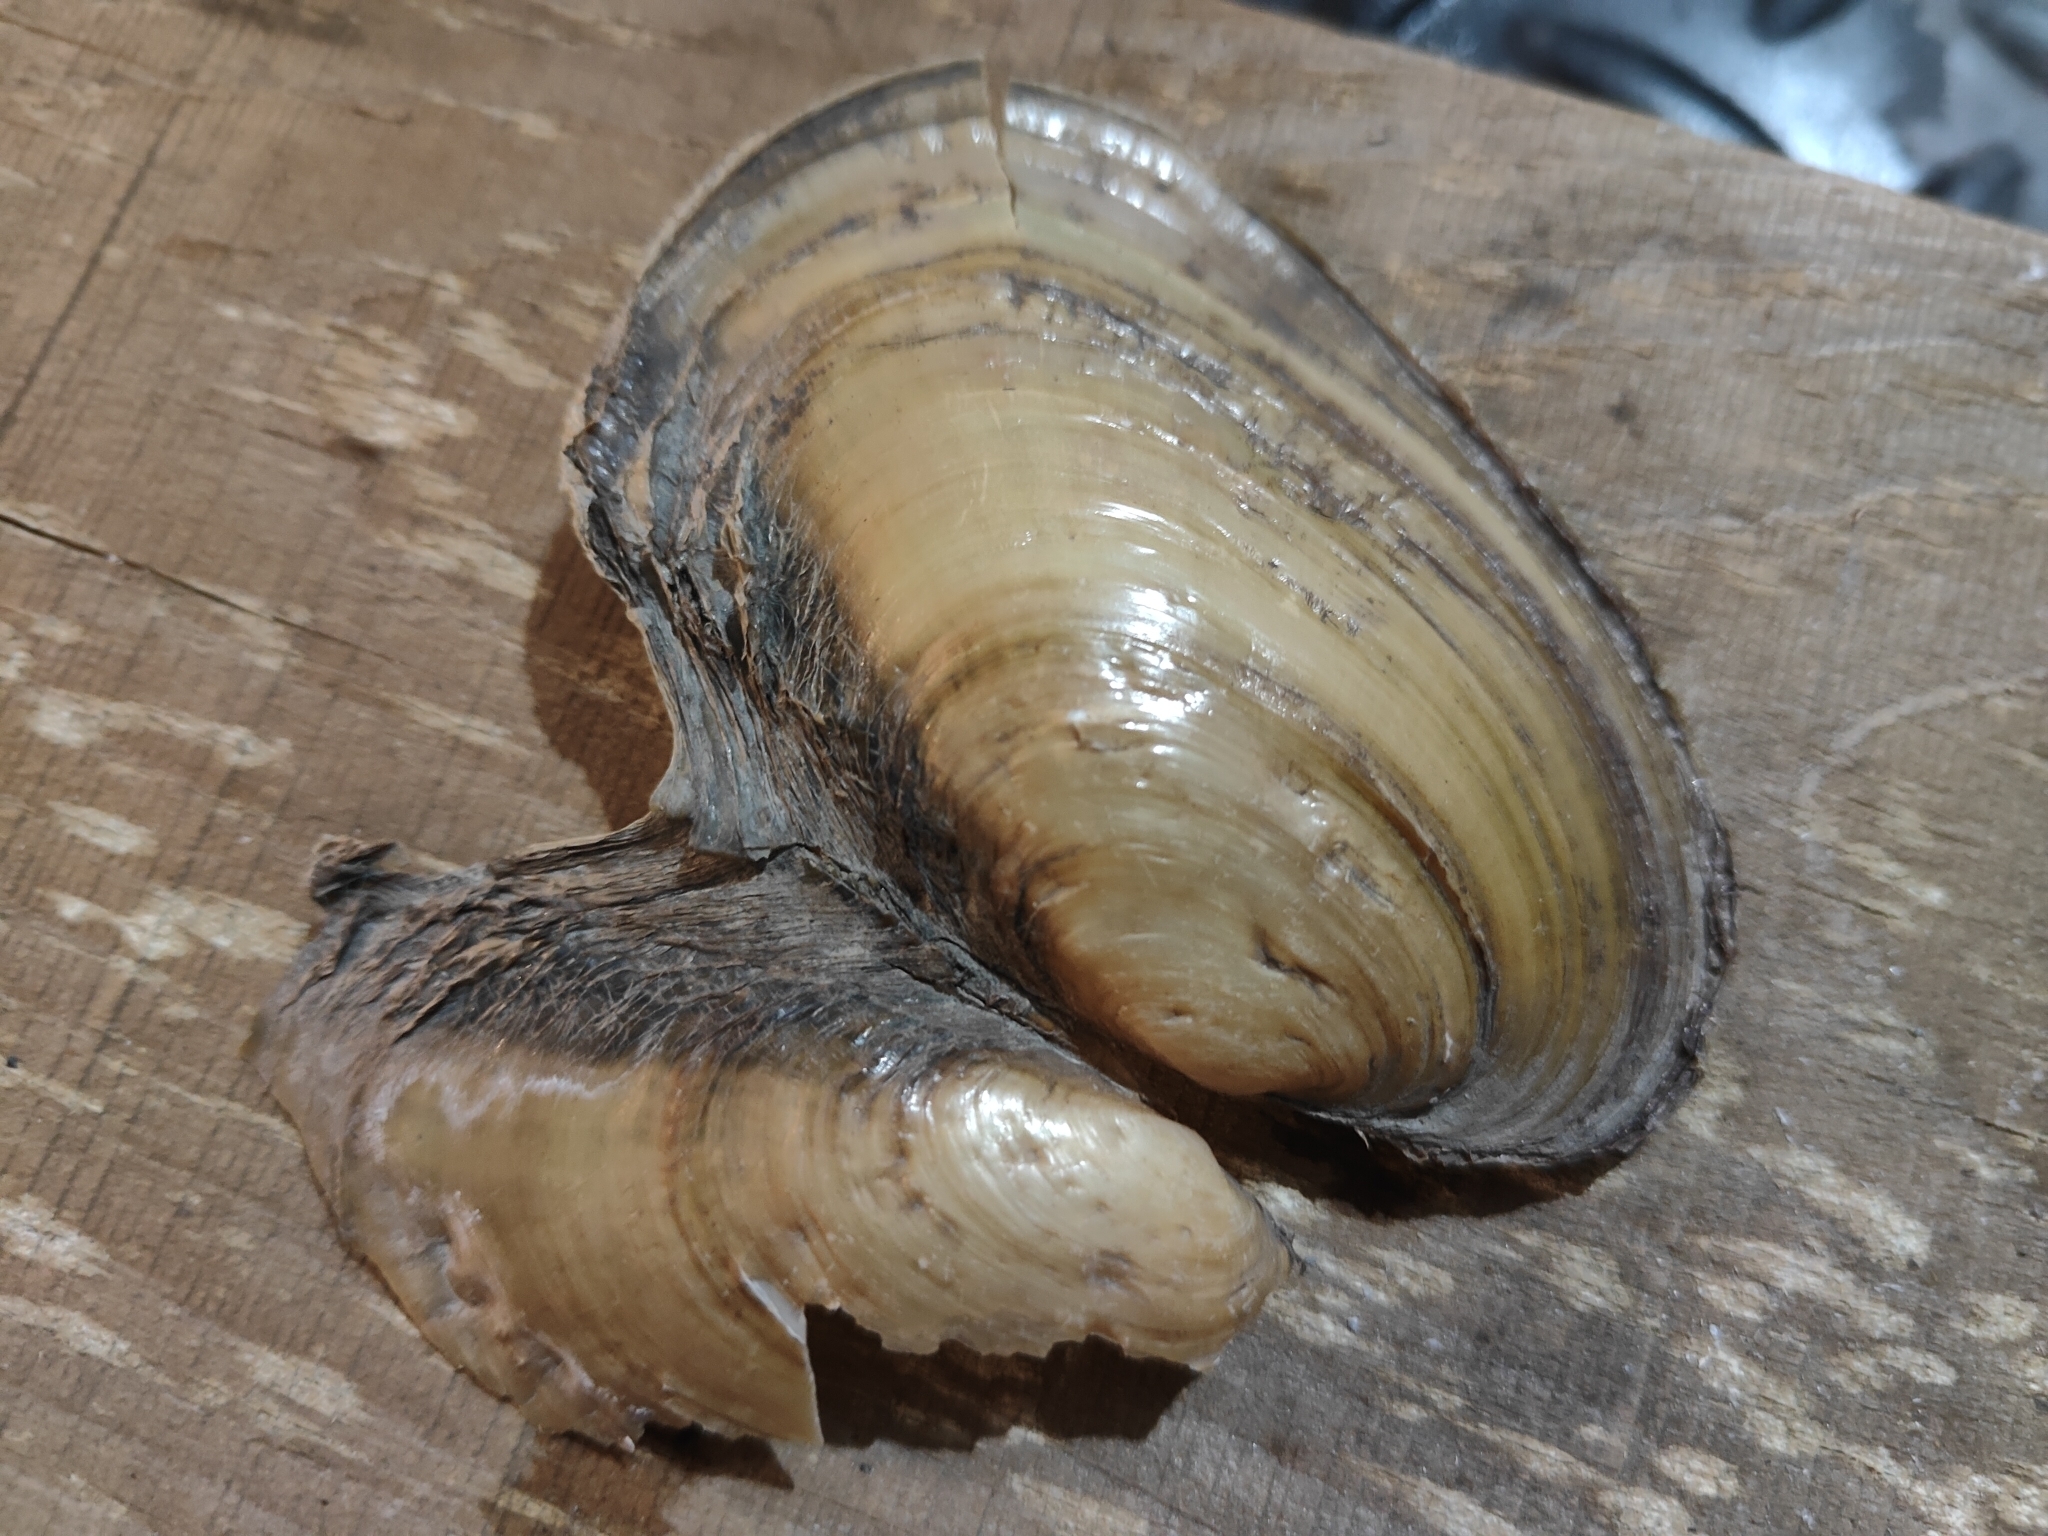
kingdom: Animalia
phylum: Mollusca
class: Bivalvia
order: Unionida
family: Unionidae
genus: Potamilus
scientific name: Potamilus fragilis
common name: Fragile papershell
